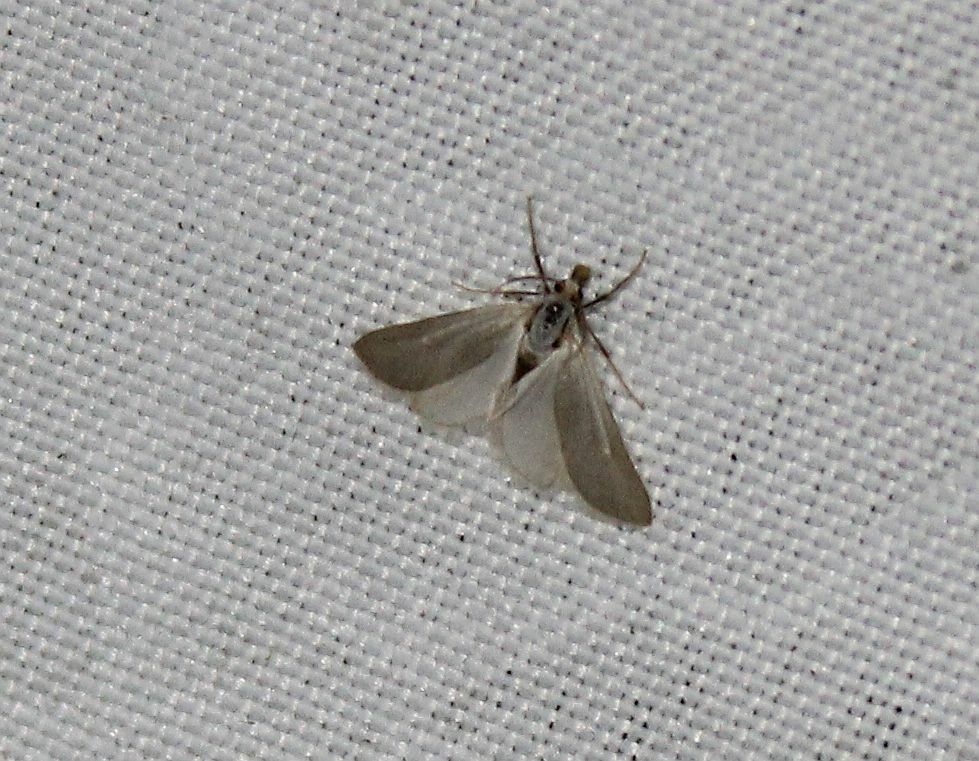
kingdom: Animalia
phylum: Arthropoda
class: Insecta
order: Lepidoptera
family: Crambidae
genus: Acentria
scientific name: Acentria ephemerella
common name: European water moth
